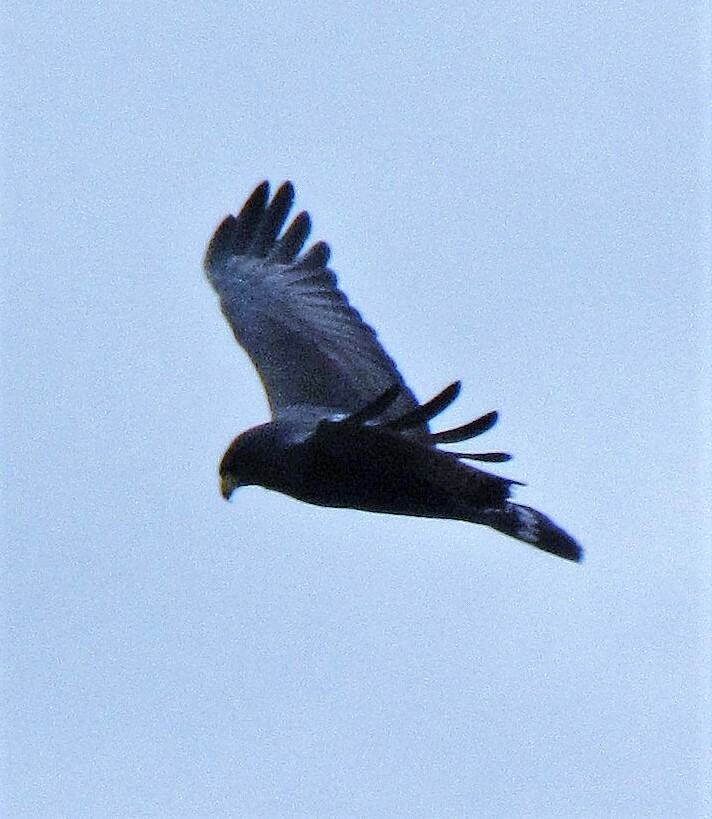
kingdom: Animalia
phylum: Chordata
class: Aves
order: Accipitriformes
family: Accipitridae
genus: Buteo
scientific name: Buteo albonotatus
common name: Zone-tailed hawk
